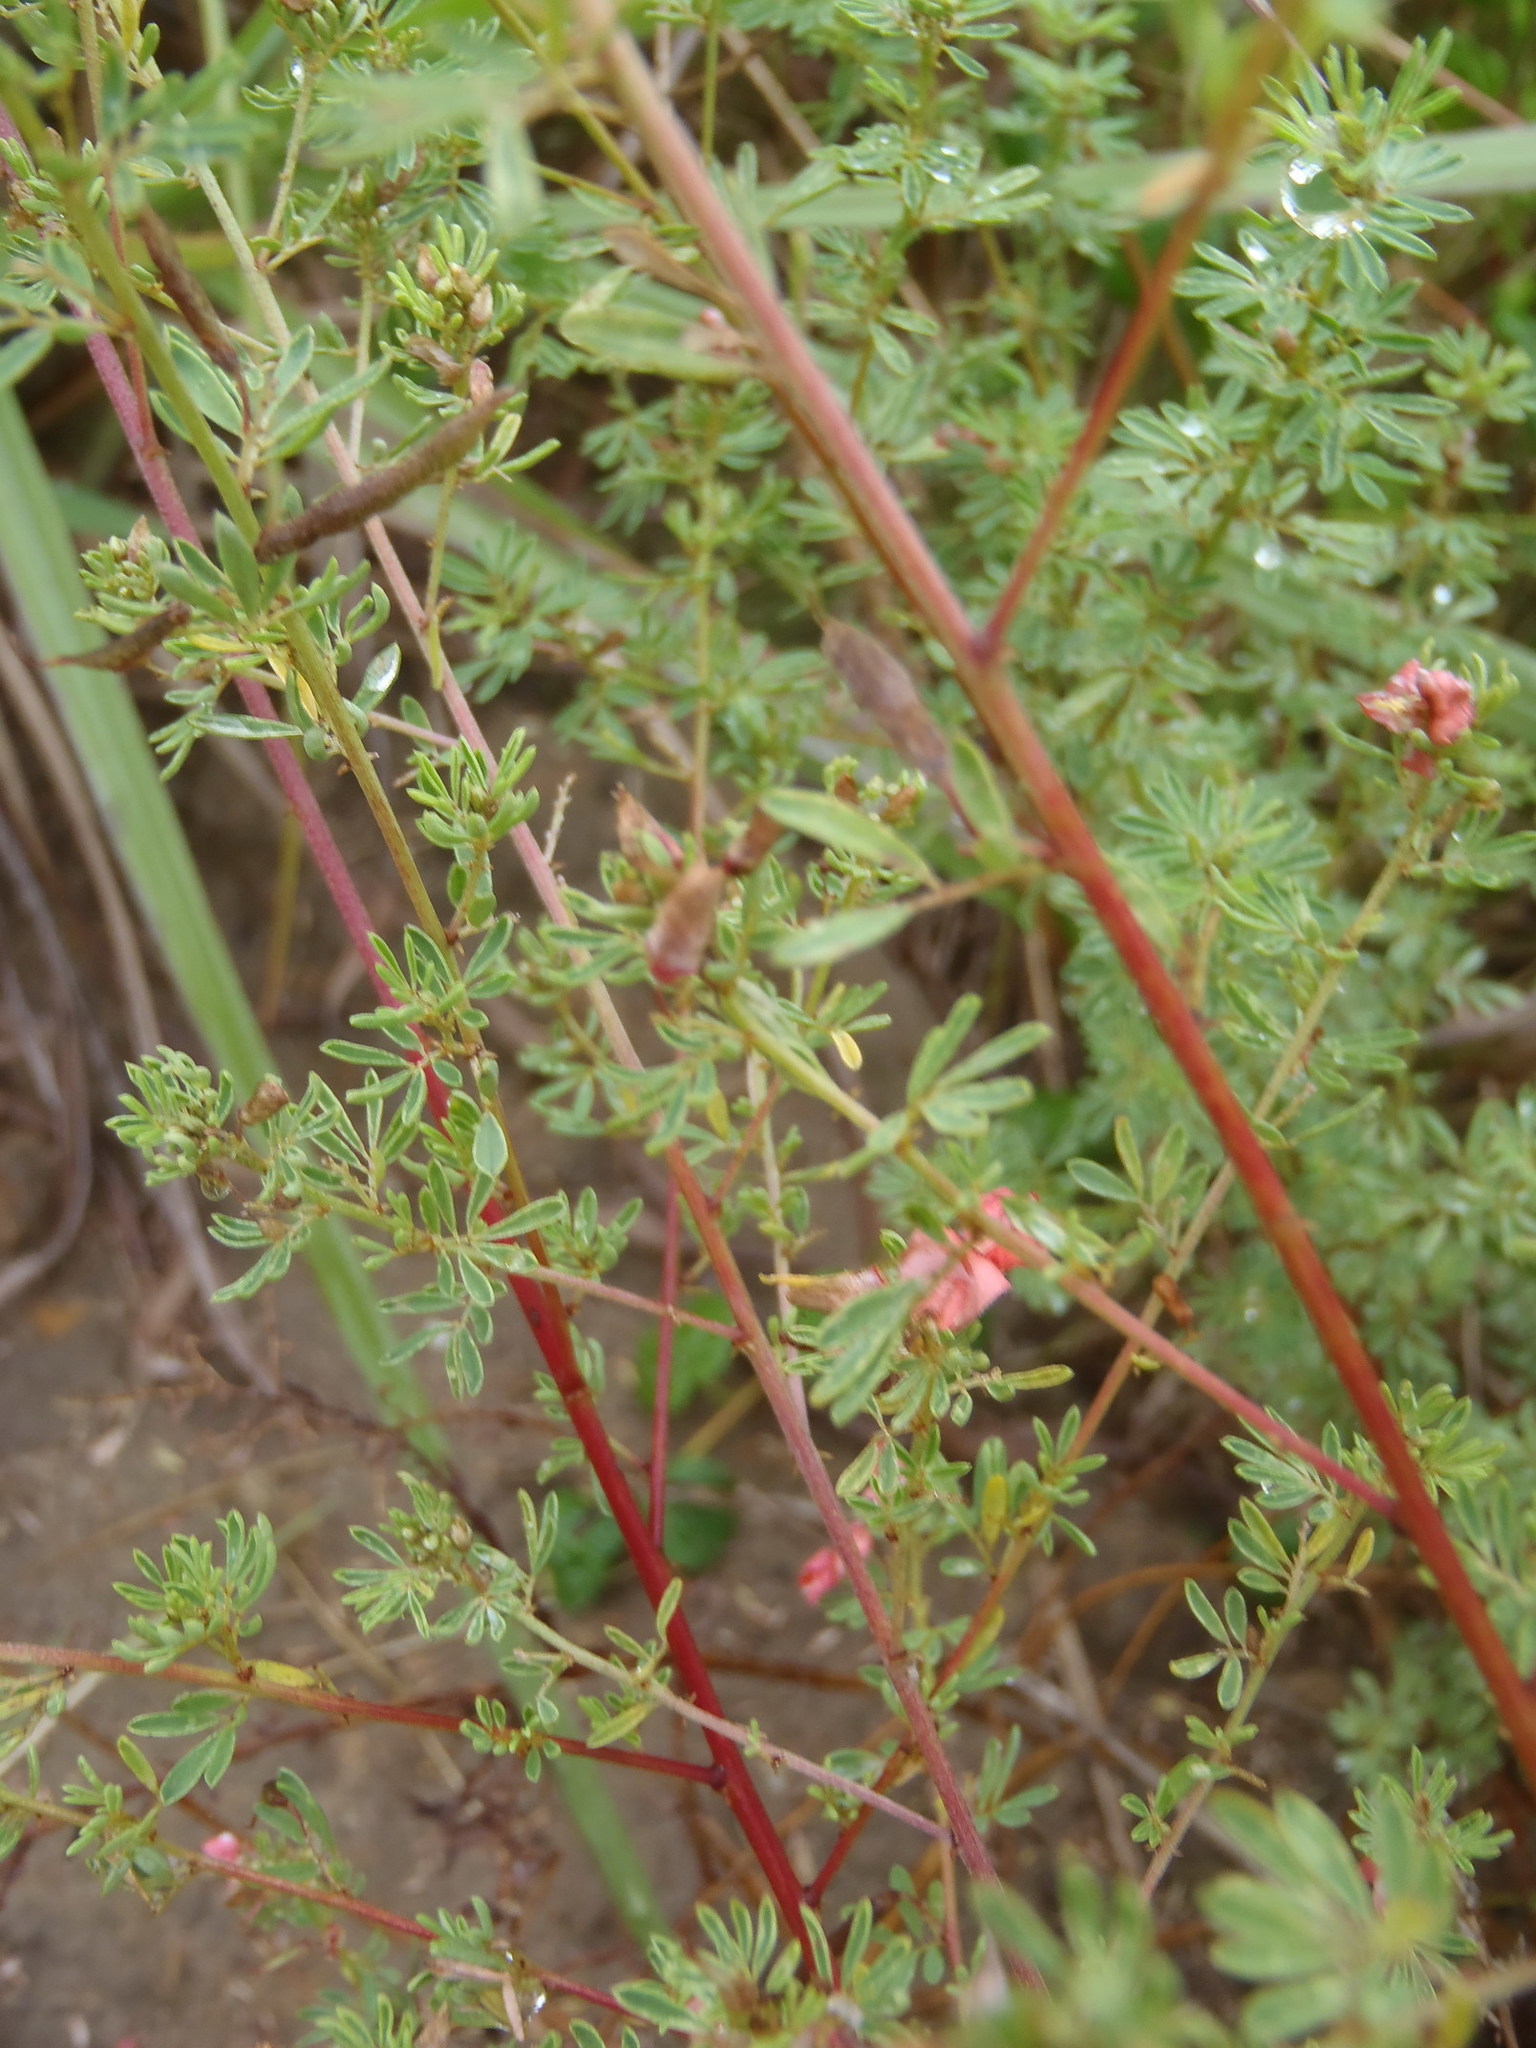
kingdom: Plantae
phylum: Tracheophyta
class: Magnoliopsida
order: Fabales
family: Fabaceae
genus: Indigofera
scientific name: Indigofera stricta
